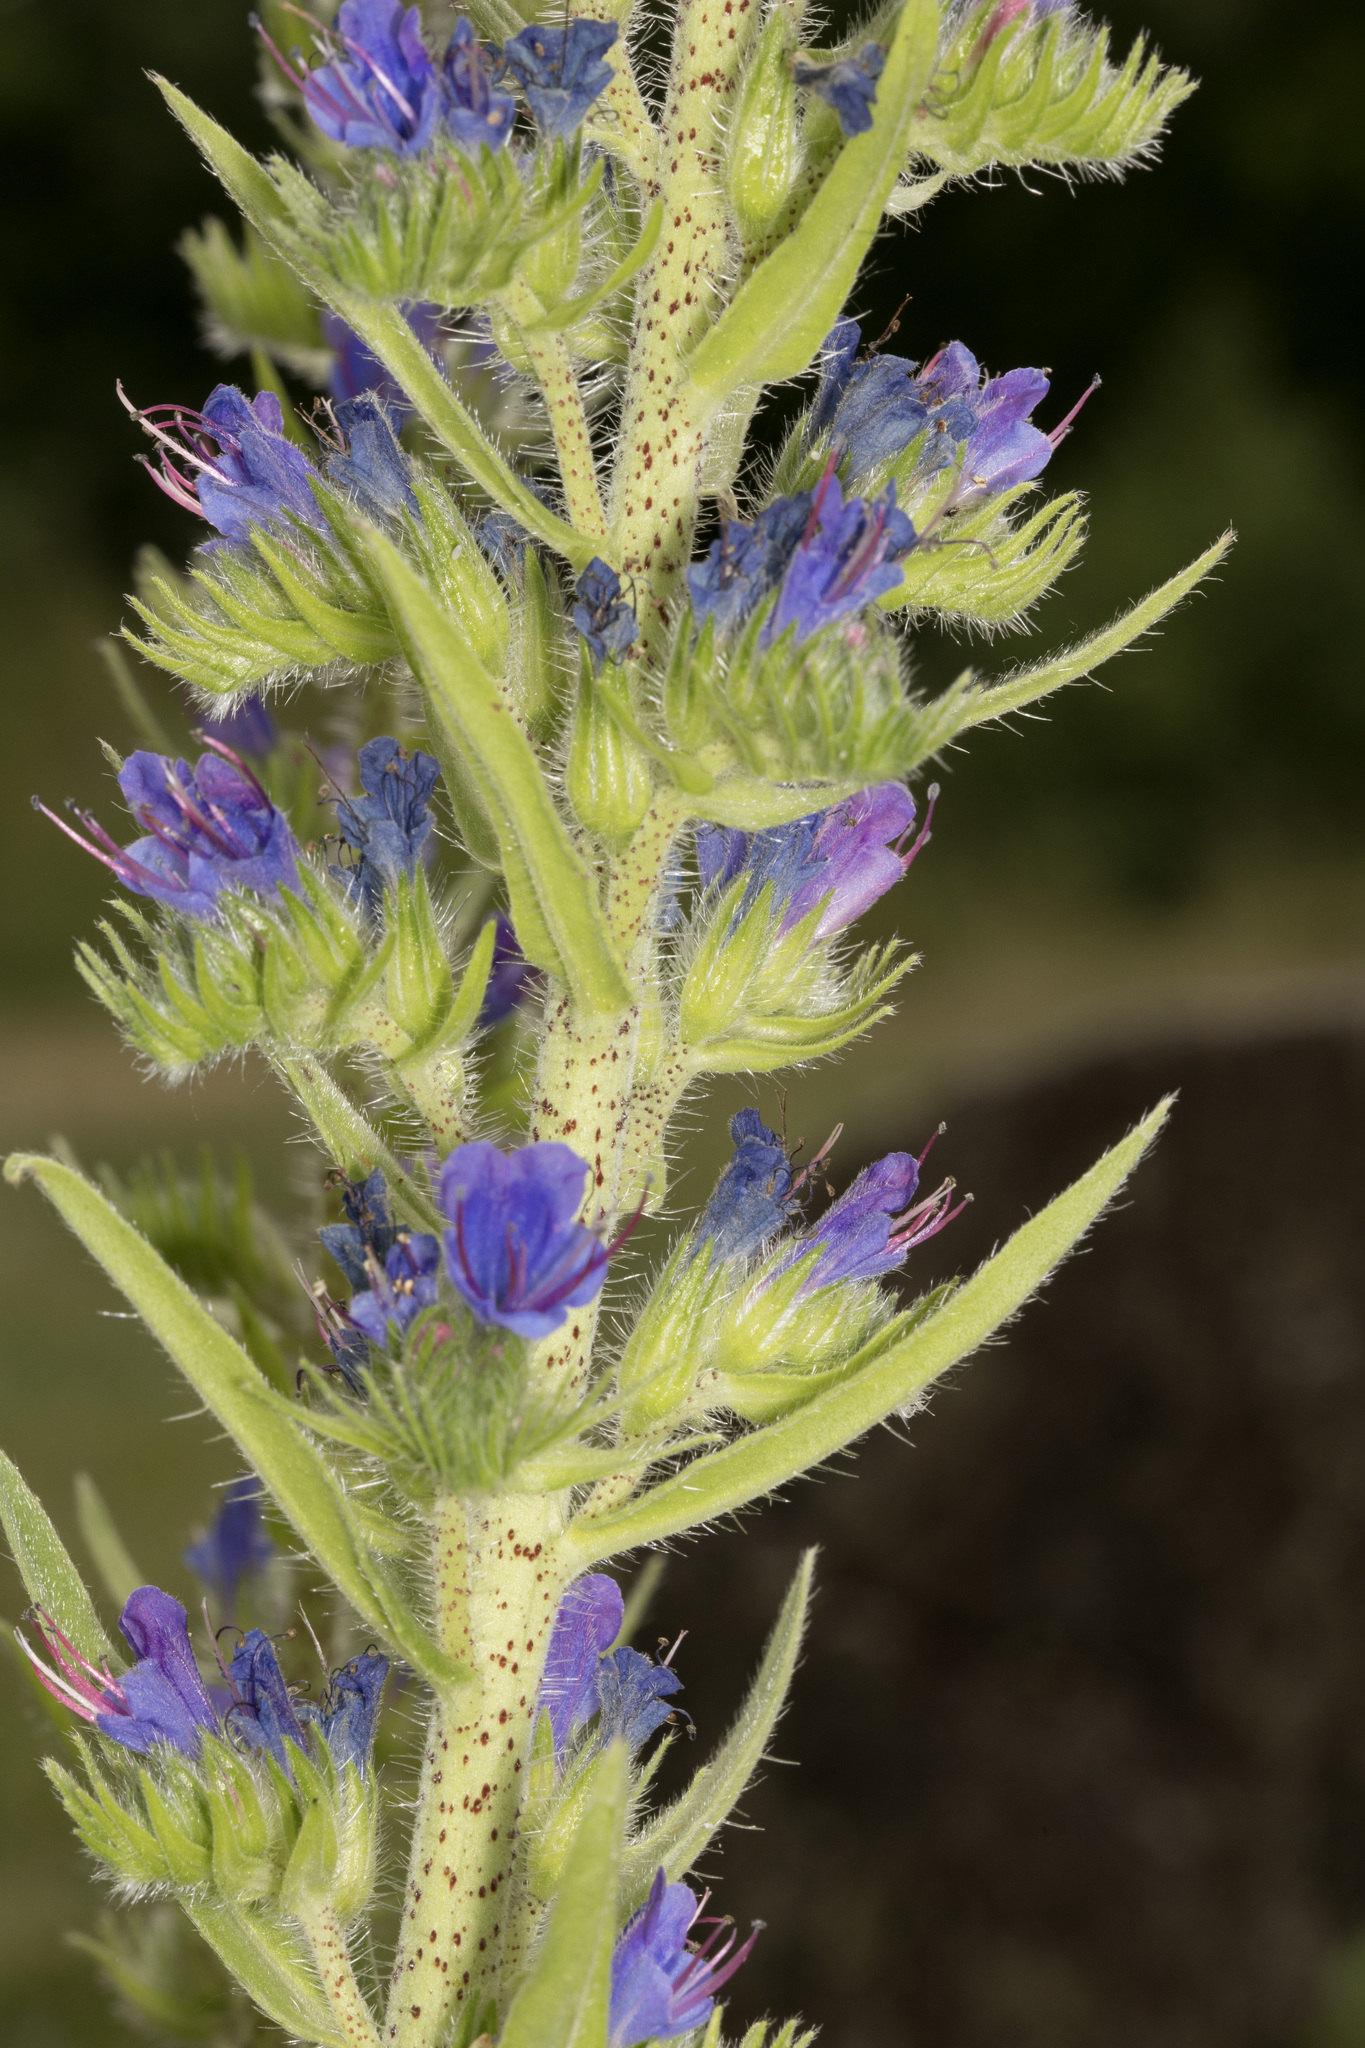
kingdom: Plantae
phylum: Tracheophyta
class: Magnoliopsida
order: Boraginales
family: Boraginaceae
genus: Echium
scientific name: Echium vulgare
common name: Common viper's bugloss
